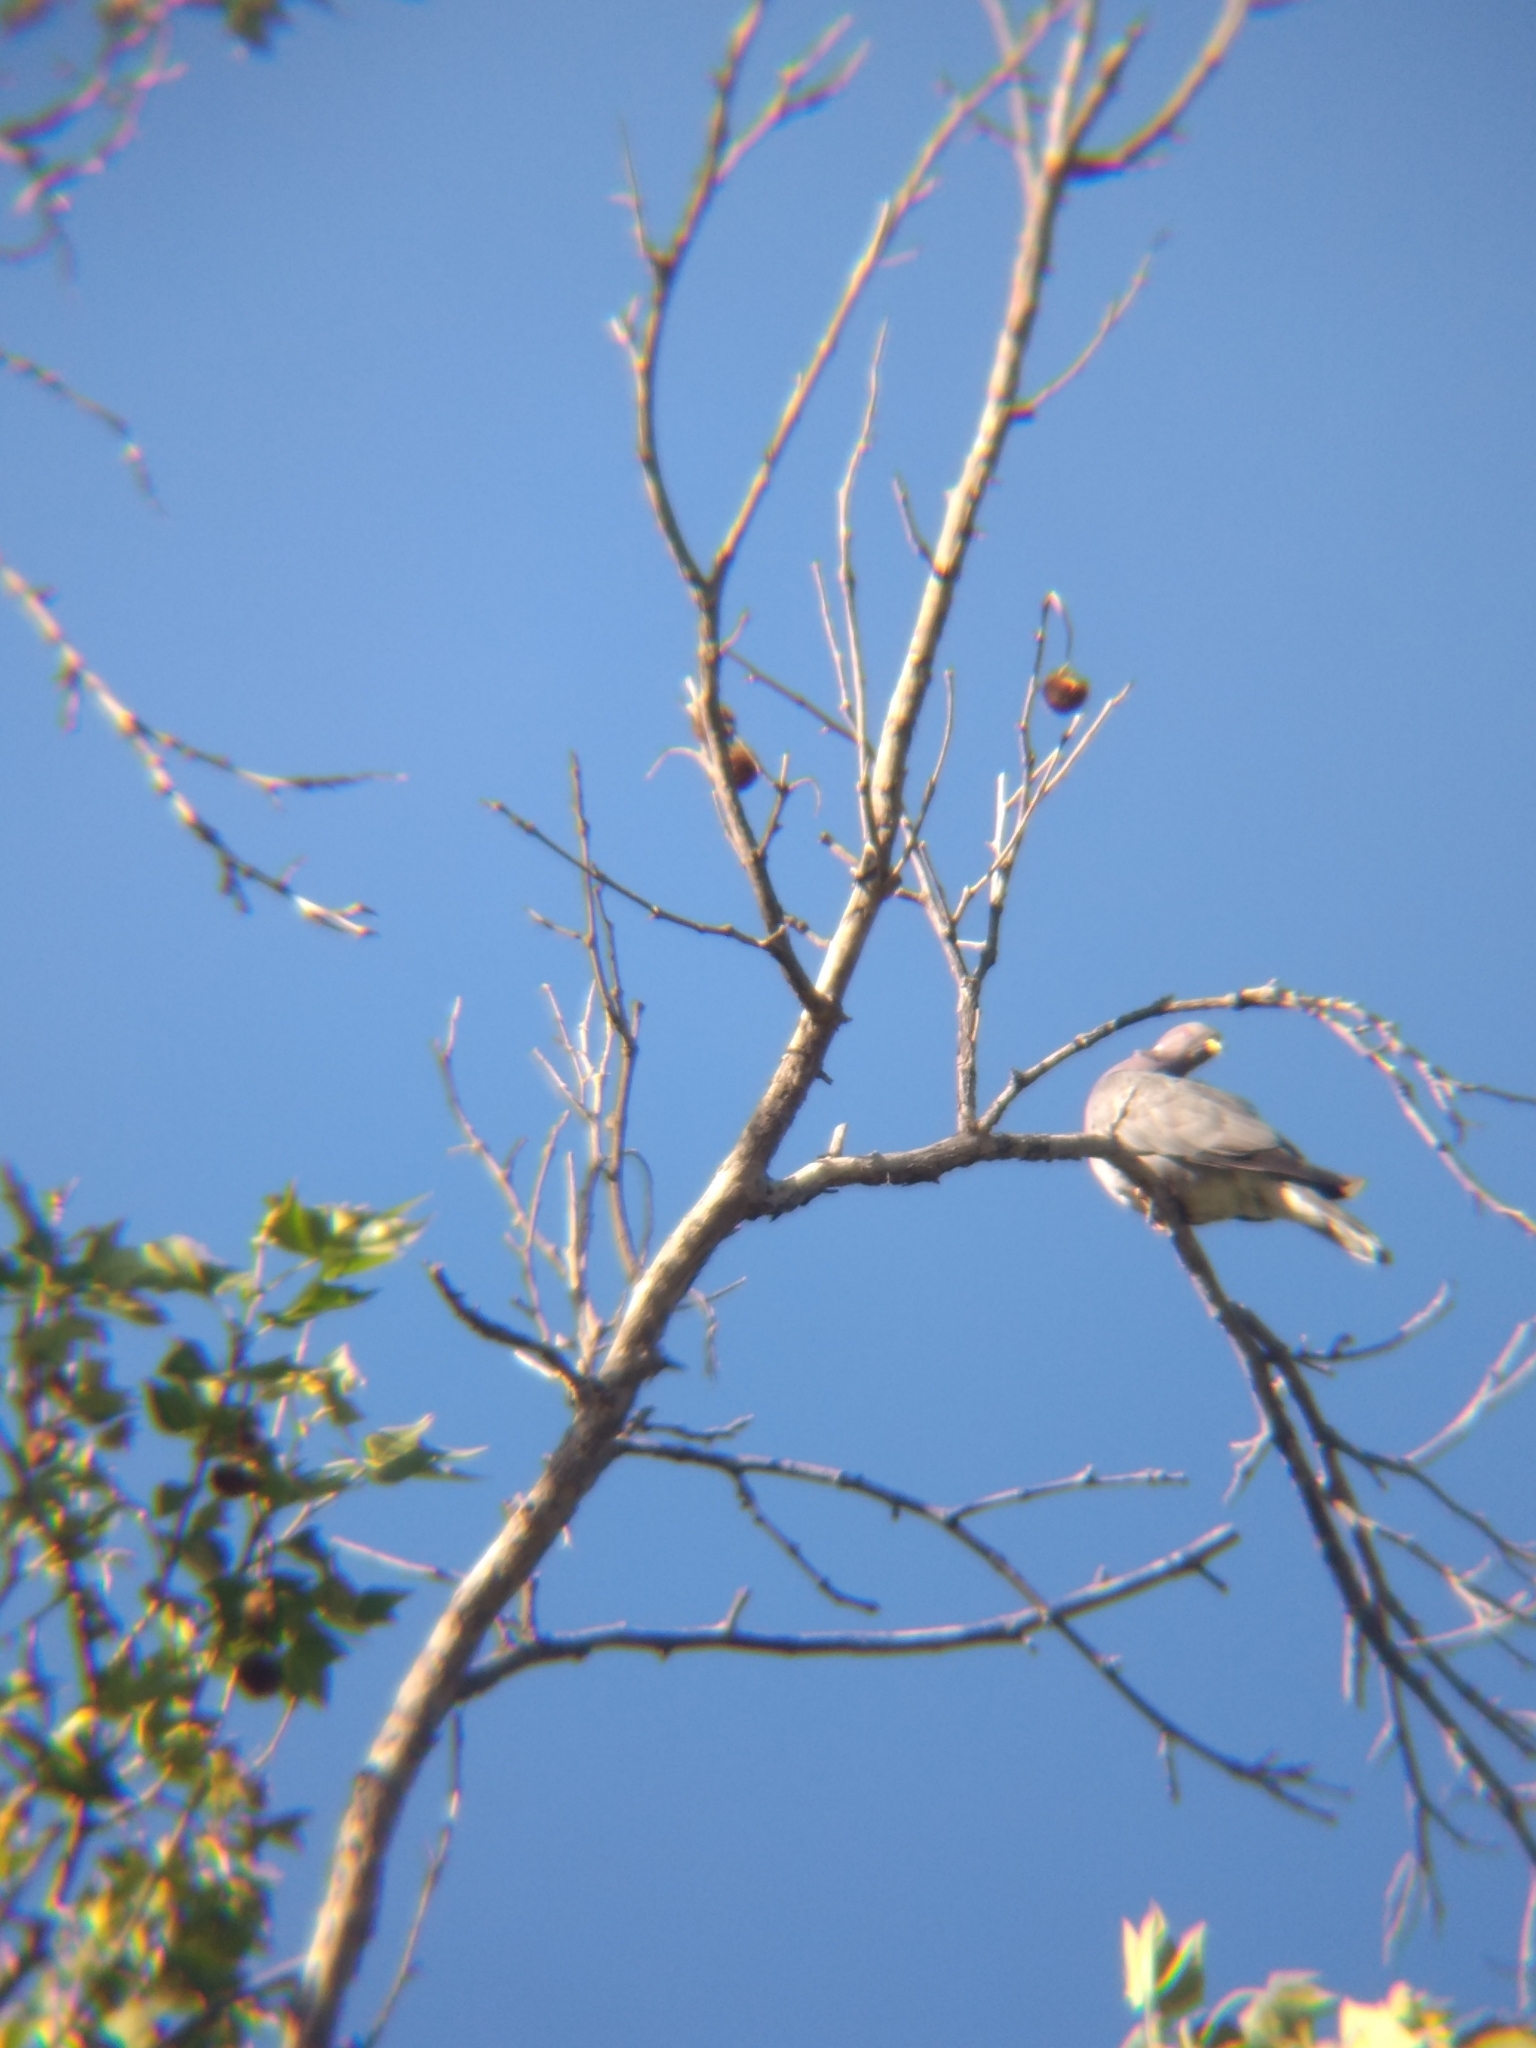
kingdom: Animalia
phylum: Chordata
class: Aves
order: Columbiformes
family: Columbidae
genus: Patagioenas
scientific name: Patagioenas fasciata
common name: Band-tailed pigeon
